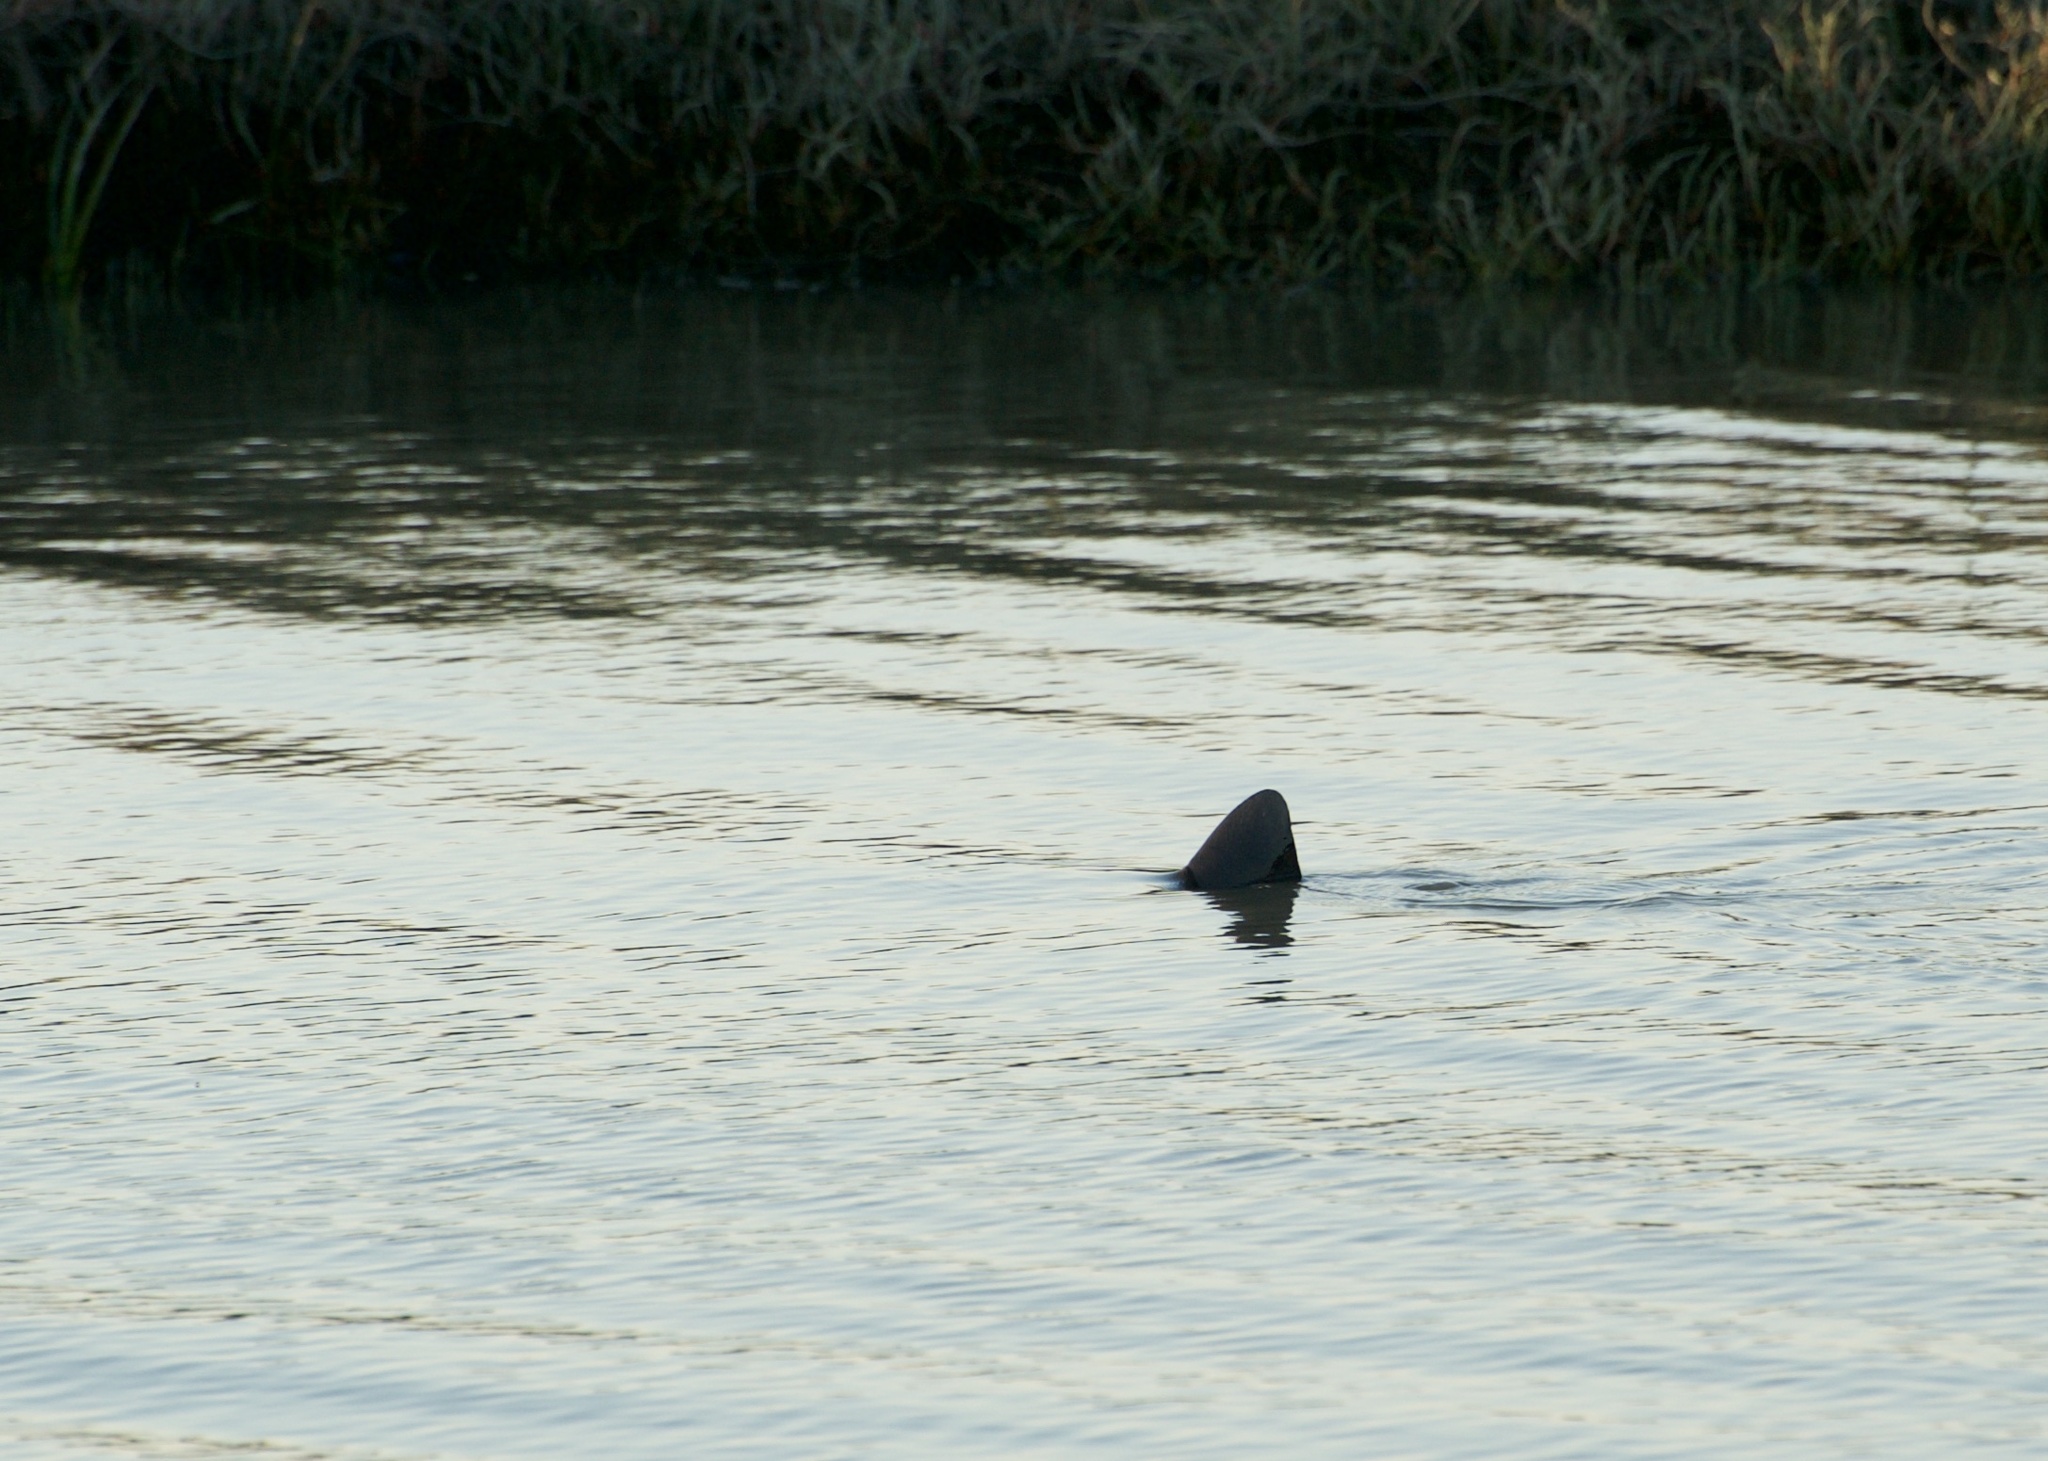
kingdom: Animalia
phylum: Chordata
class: Elasmobranchii
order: Carcharhiniformes
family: Triakidae
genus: Triakis
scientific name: Triakis semifasciata
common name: Leopard shark
